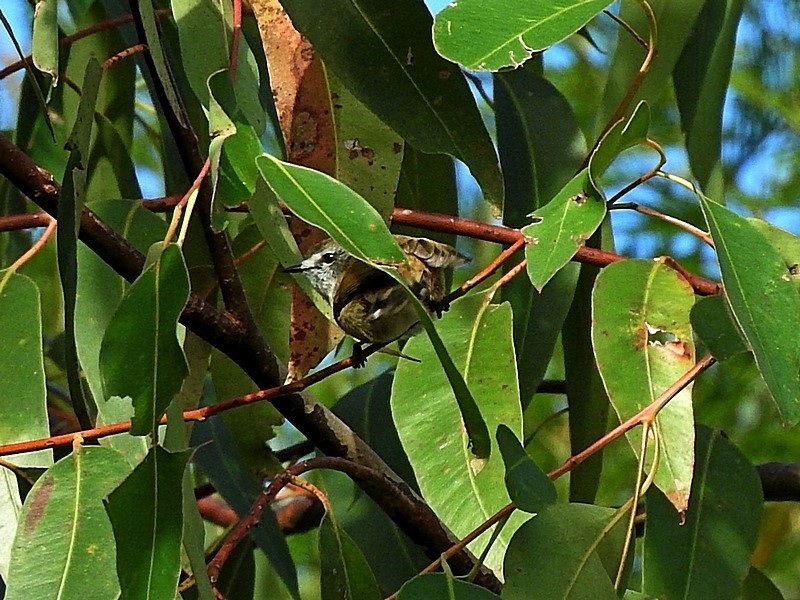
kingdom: Animalia
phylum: Chordata
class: Aves
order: Passeriformes
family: Acanthizidae
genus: Gerygone
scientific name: Gerygone mouki
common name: Brown gerygone
